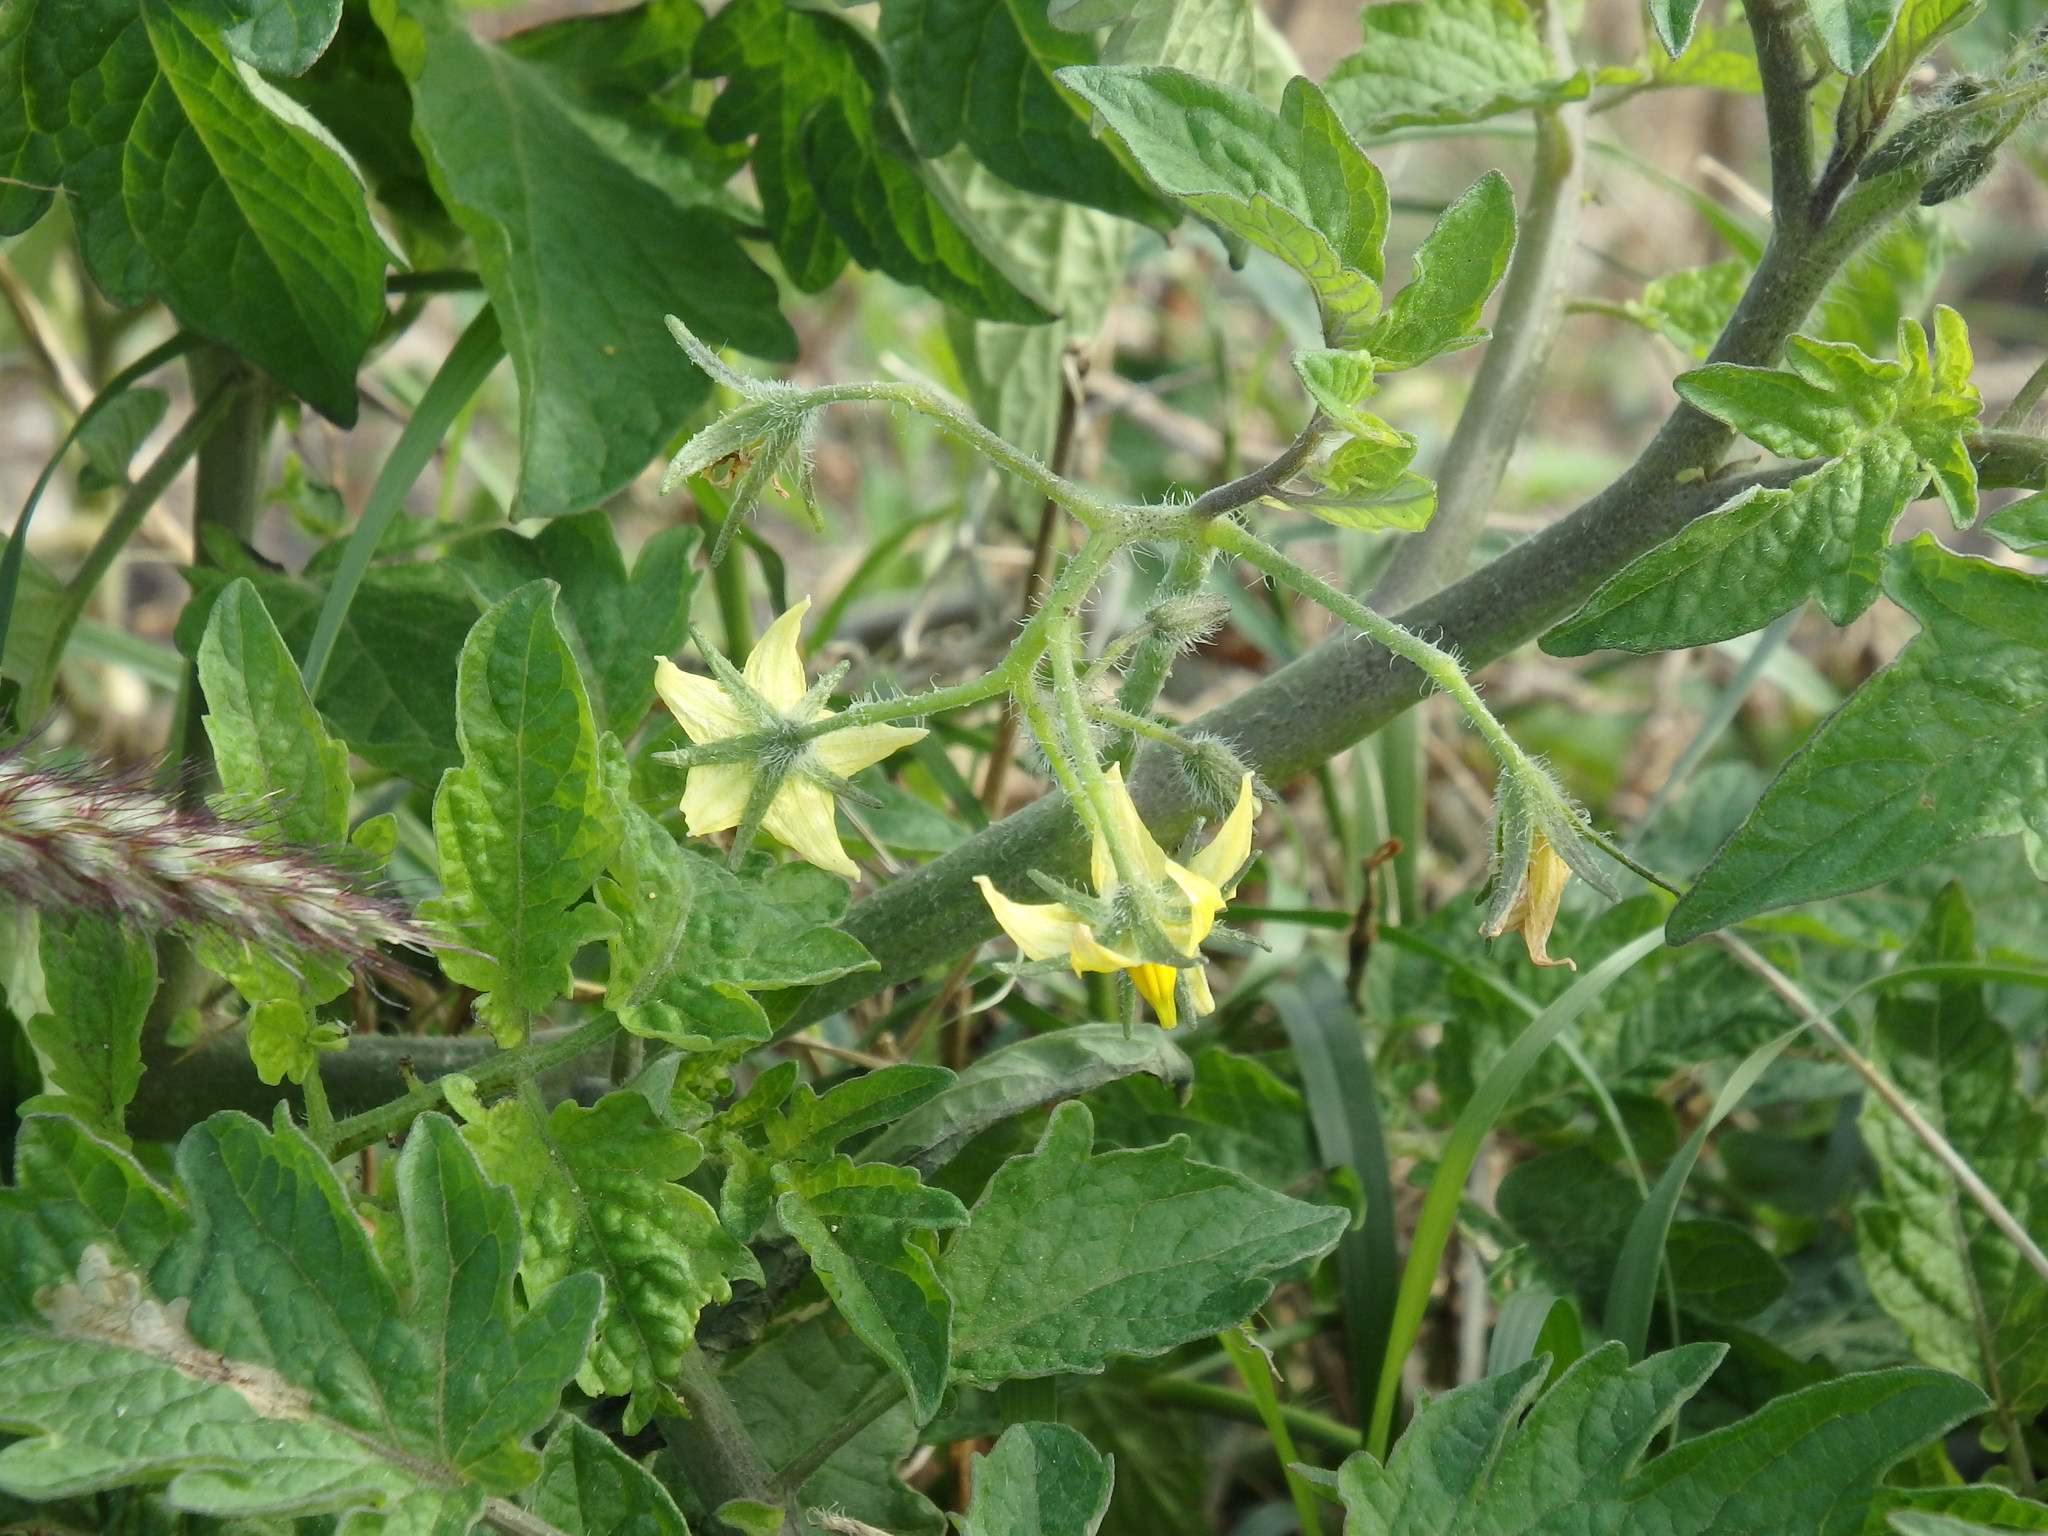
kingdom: Plantae
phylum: Tracheophyta
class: Magnoliopsida
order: Solanales
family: Solanaceae
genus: Solanum
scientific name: Solanum lycopersicum
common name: Garden tomato
